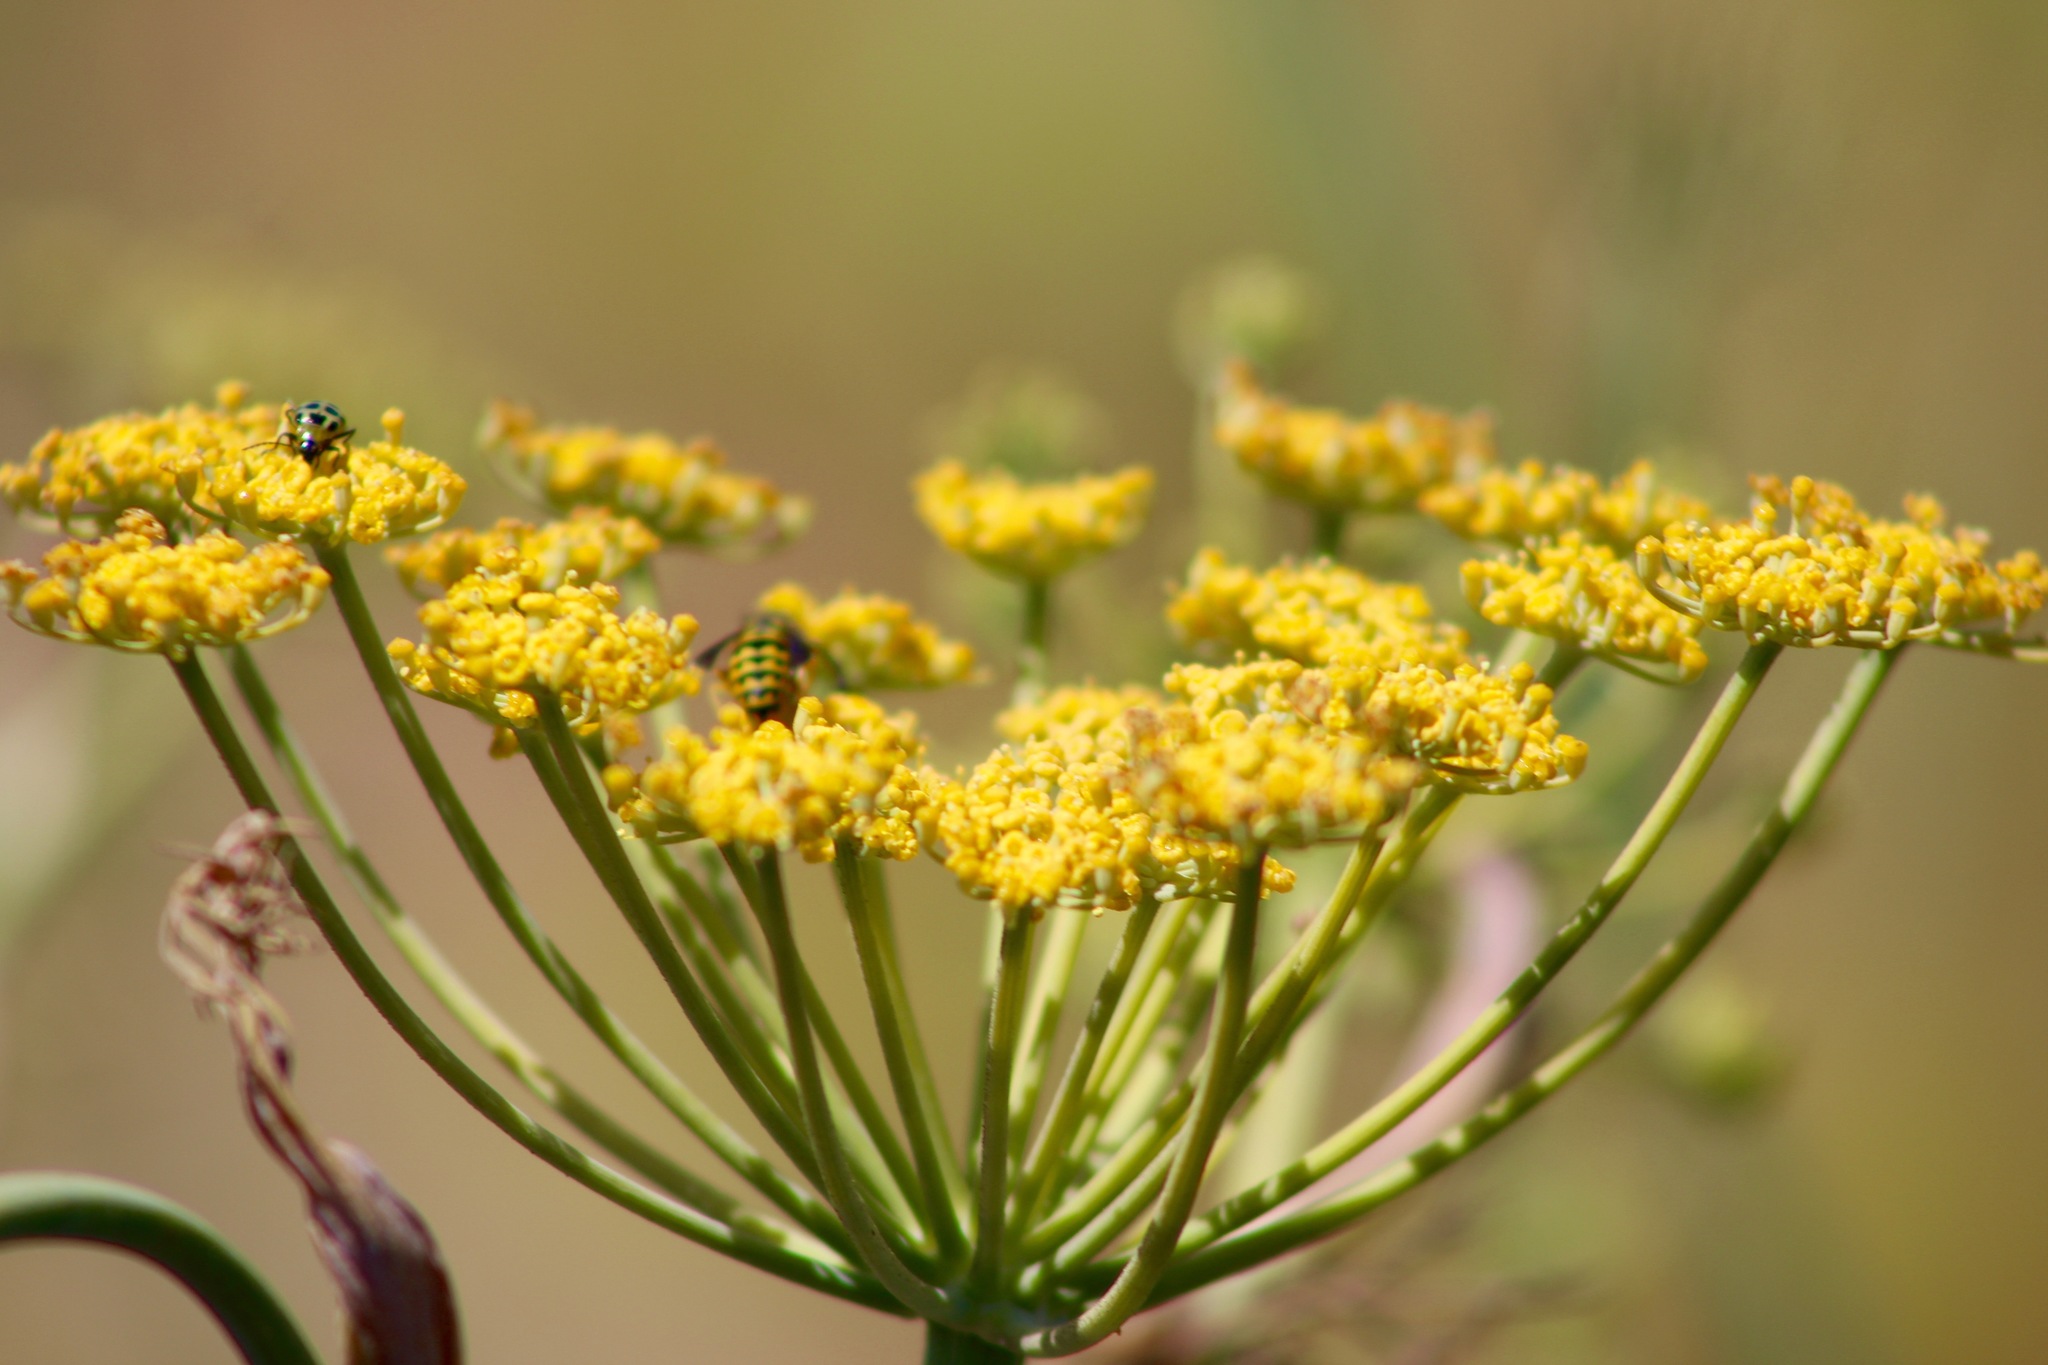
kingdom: Animalia
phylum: Arthropoda
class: Insecta
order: Coleoptera
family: Chrysomelidae
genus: Diabrotica
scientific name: Diabrotica undecimpunctata
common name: Spotted cucumber beetle
